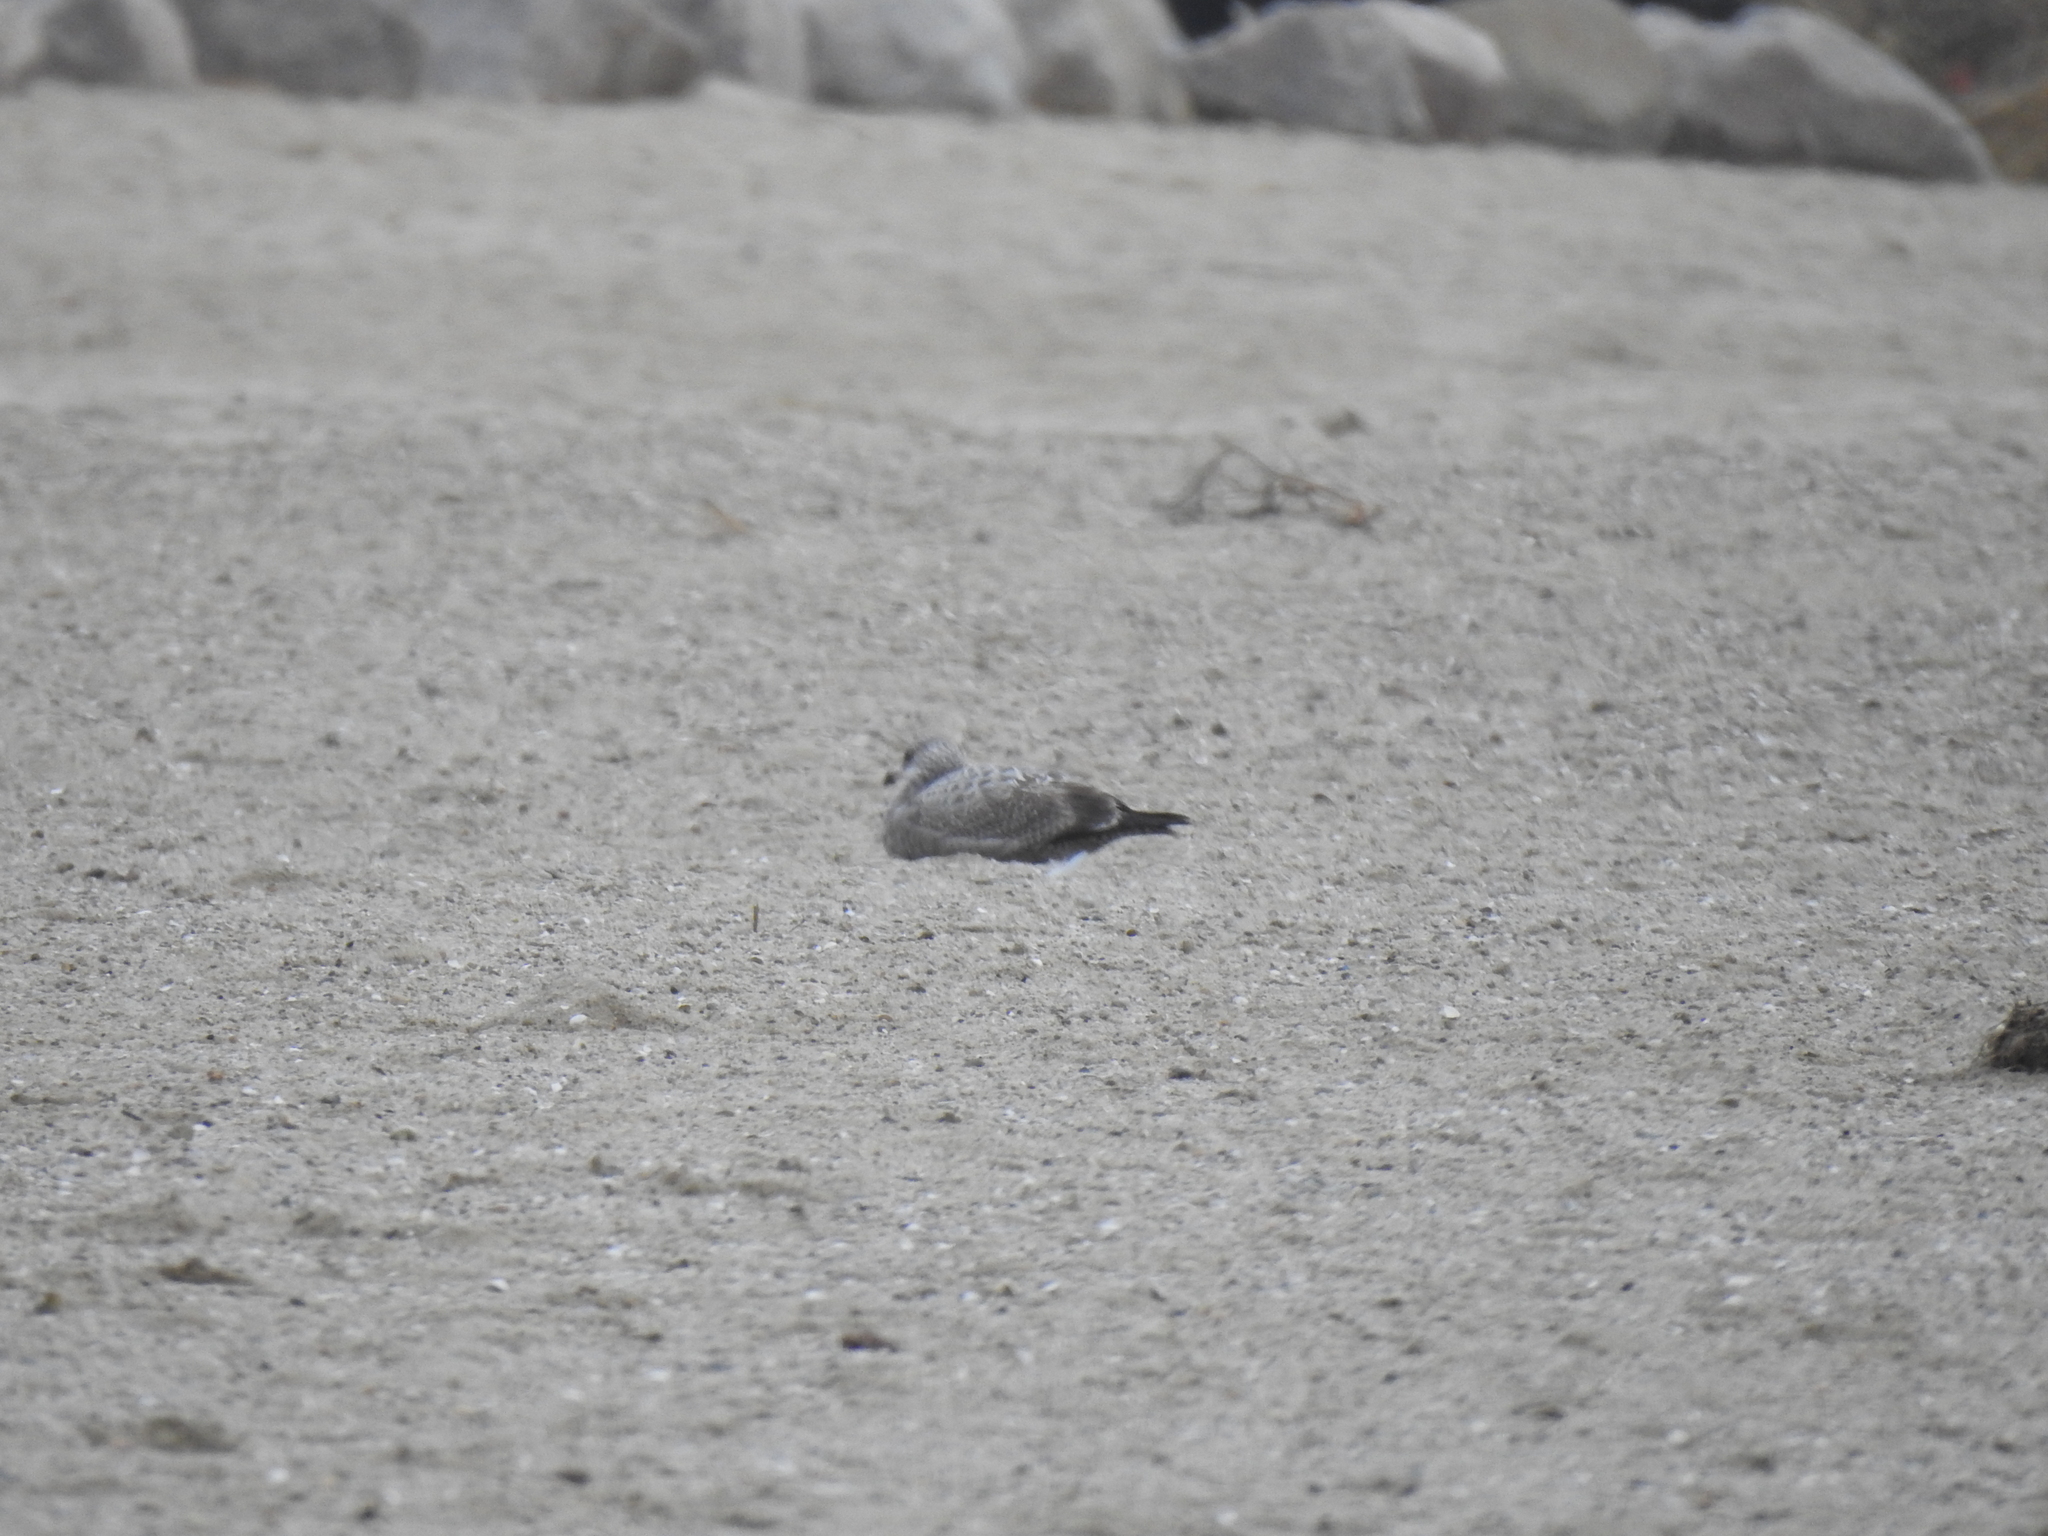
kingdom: Animalia
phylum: Chordata
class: Aves
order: Charadriiformes
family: Laridae
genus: Larus
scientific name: Larus argentatus
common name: Herring gull
